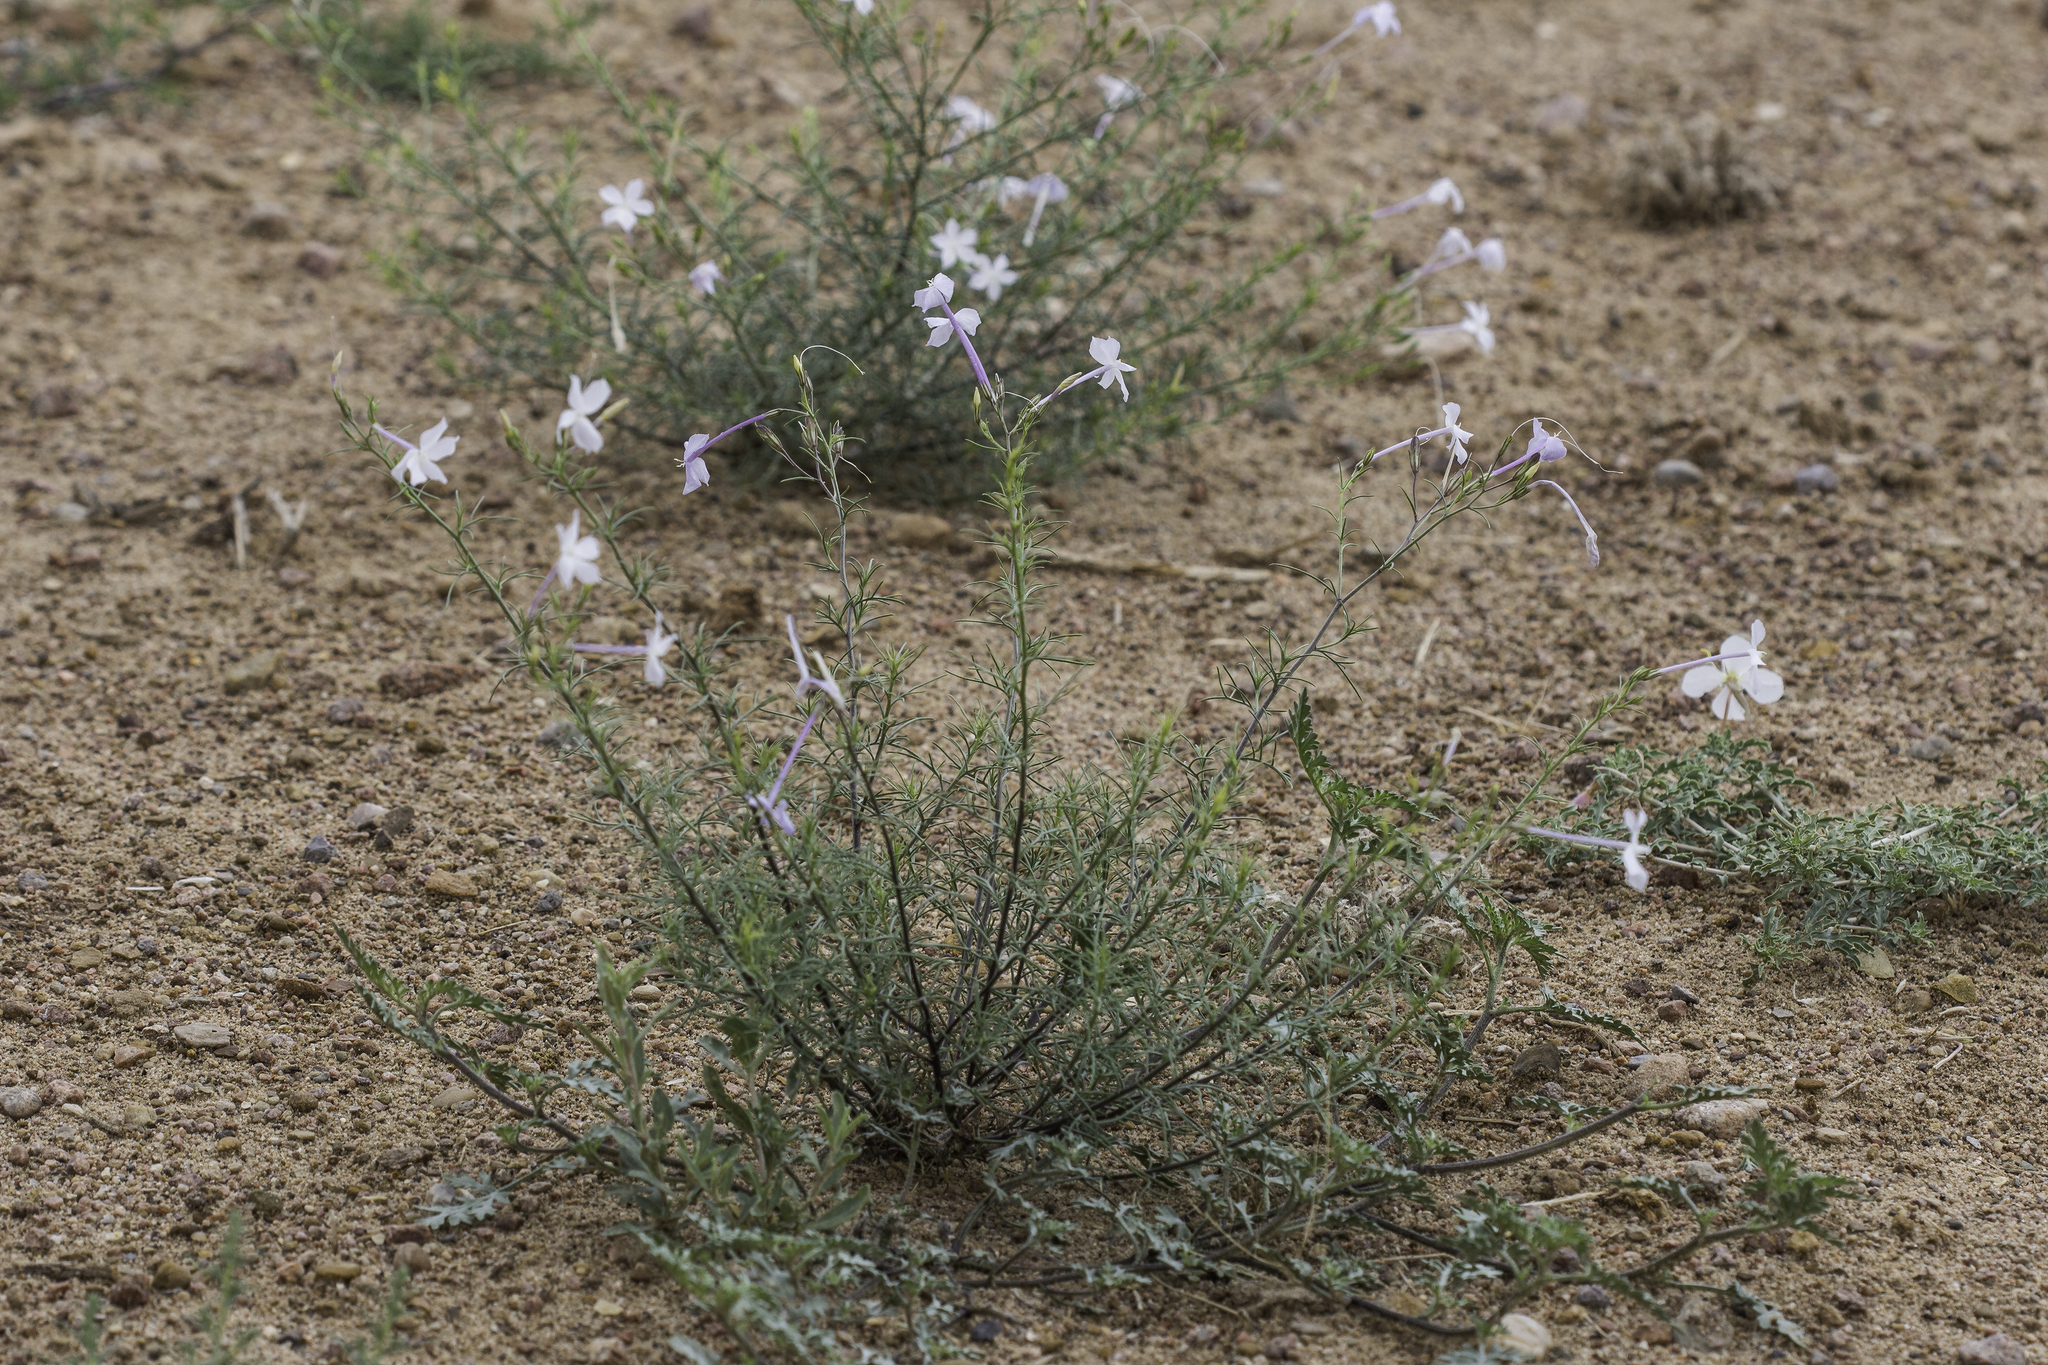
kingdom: Plantae
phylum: Tracheophyta
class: Magnoliopsida
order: Ericales
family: Polemoniaceae
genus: Ipomopsis
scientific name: Ipomopsis longiflora
